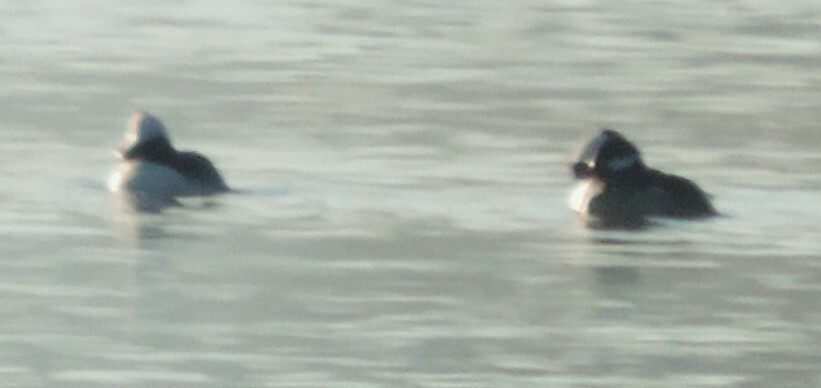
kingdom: Animalia
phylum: Chordata
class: Aves
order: Anseriformes
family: Anatidae
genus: Bucephala
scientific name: Bucephala albeola
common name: Bufflehead
